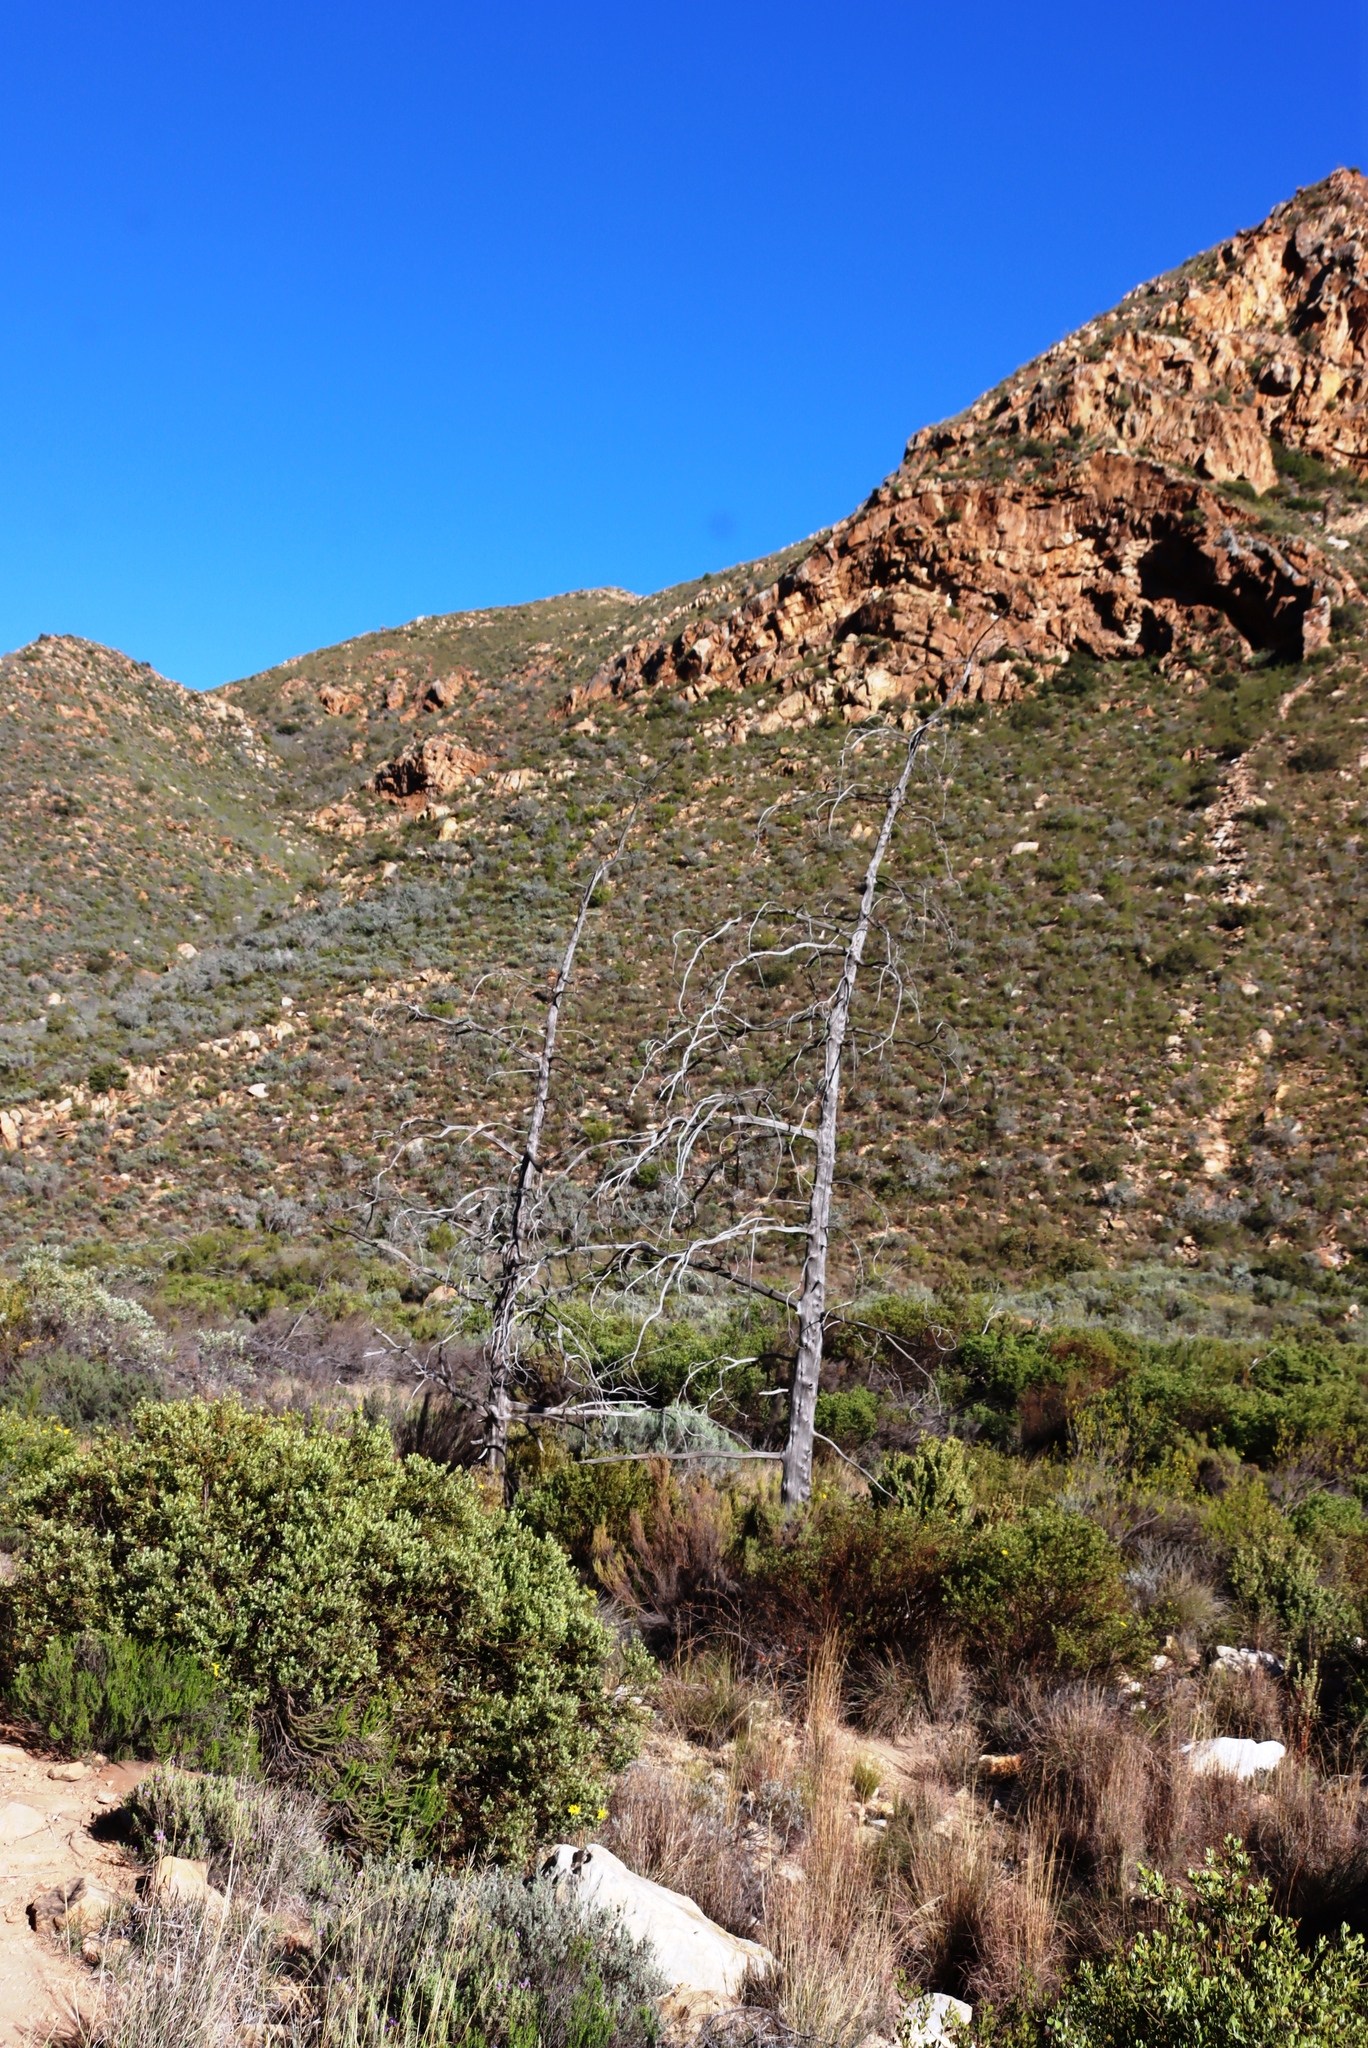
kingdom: Plantae
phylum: Tracheophyta
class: Pinopsida
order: Pinales
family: Cupressaceae
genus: Widdringtonia
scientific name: Widdringtonia schwarzii
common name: Baviaans cedar
